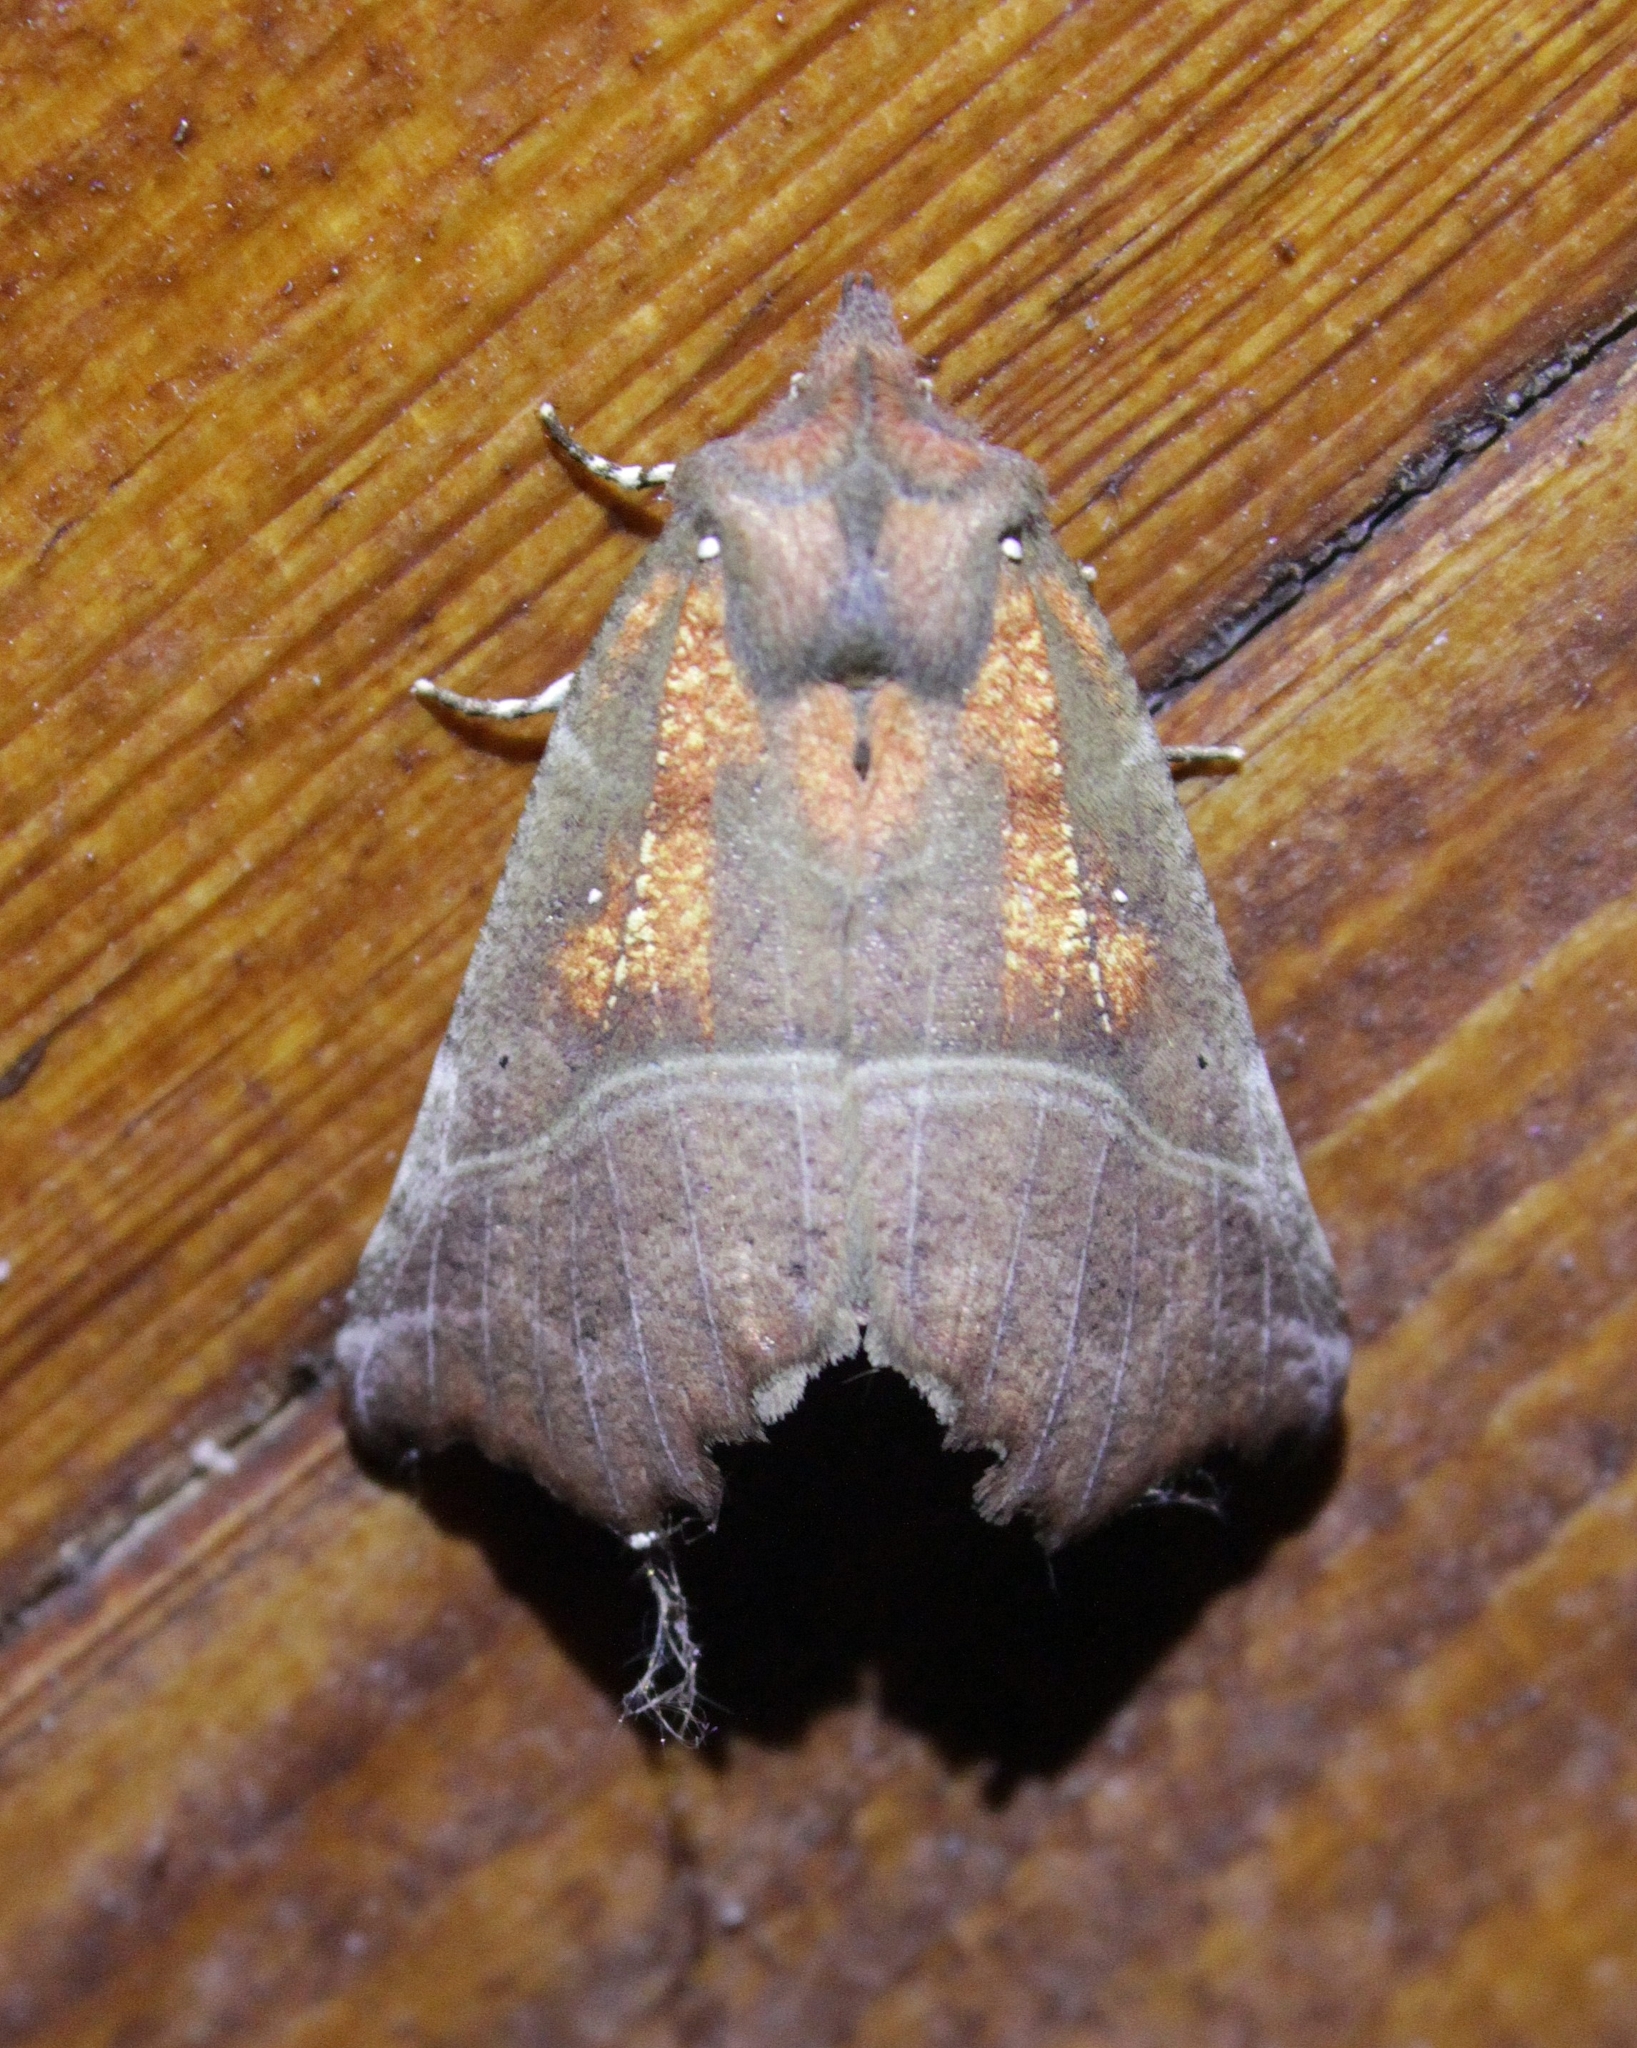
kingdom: Animalia
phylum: Arthropoda
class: Insecta
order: Lepidoptera
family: Erebidae
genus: Scoliopteryx
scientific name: Scoliopteryx libatrix
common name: Herald
